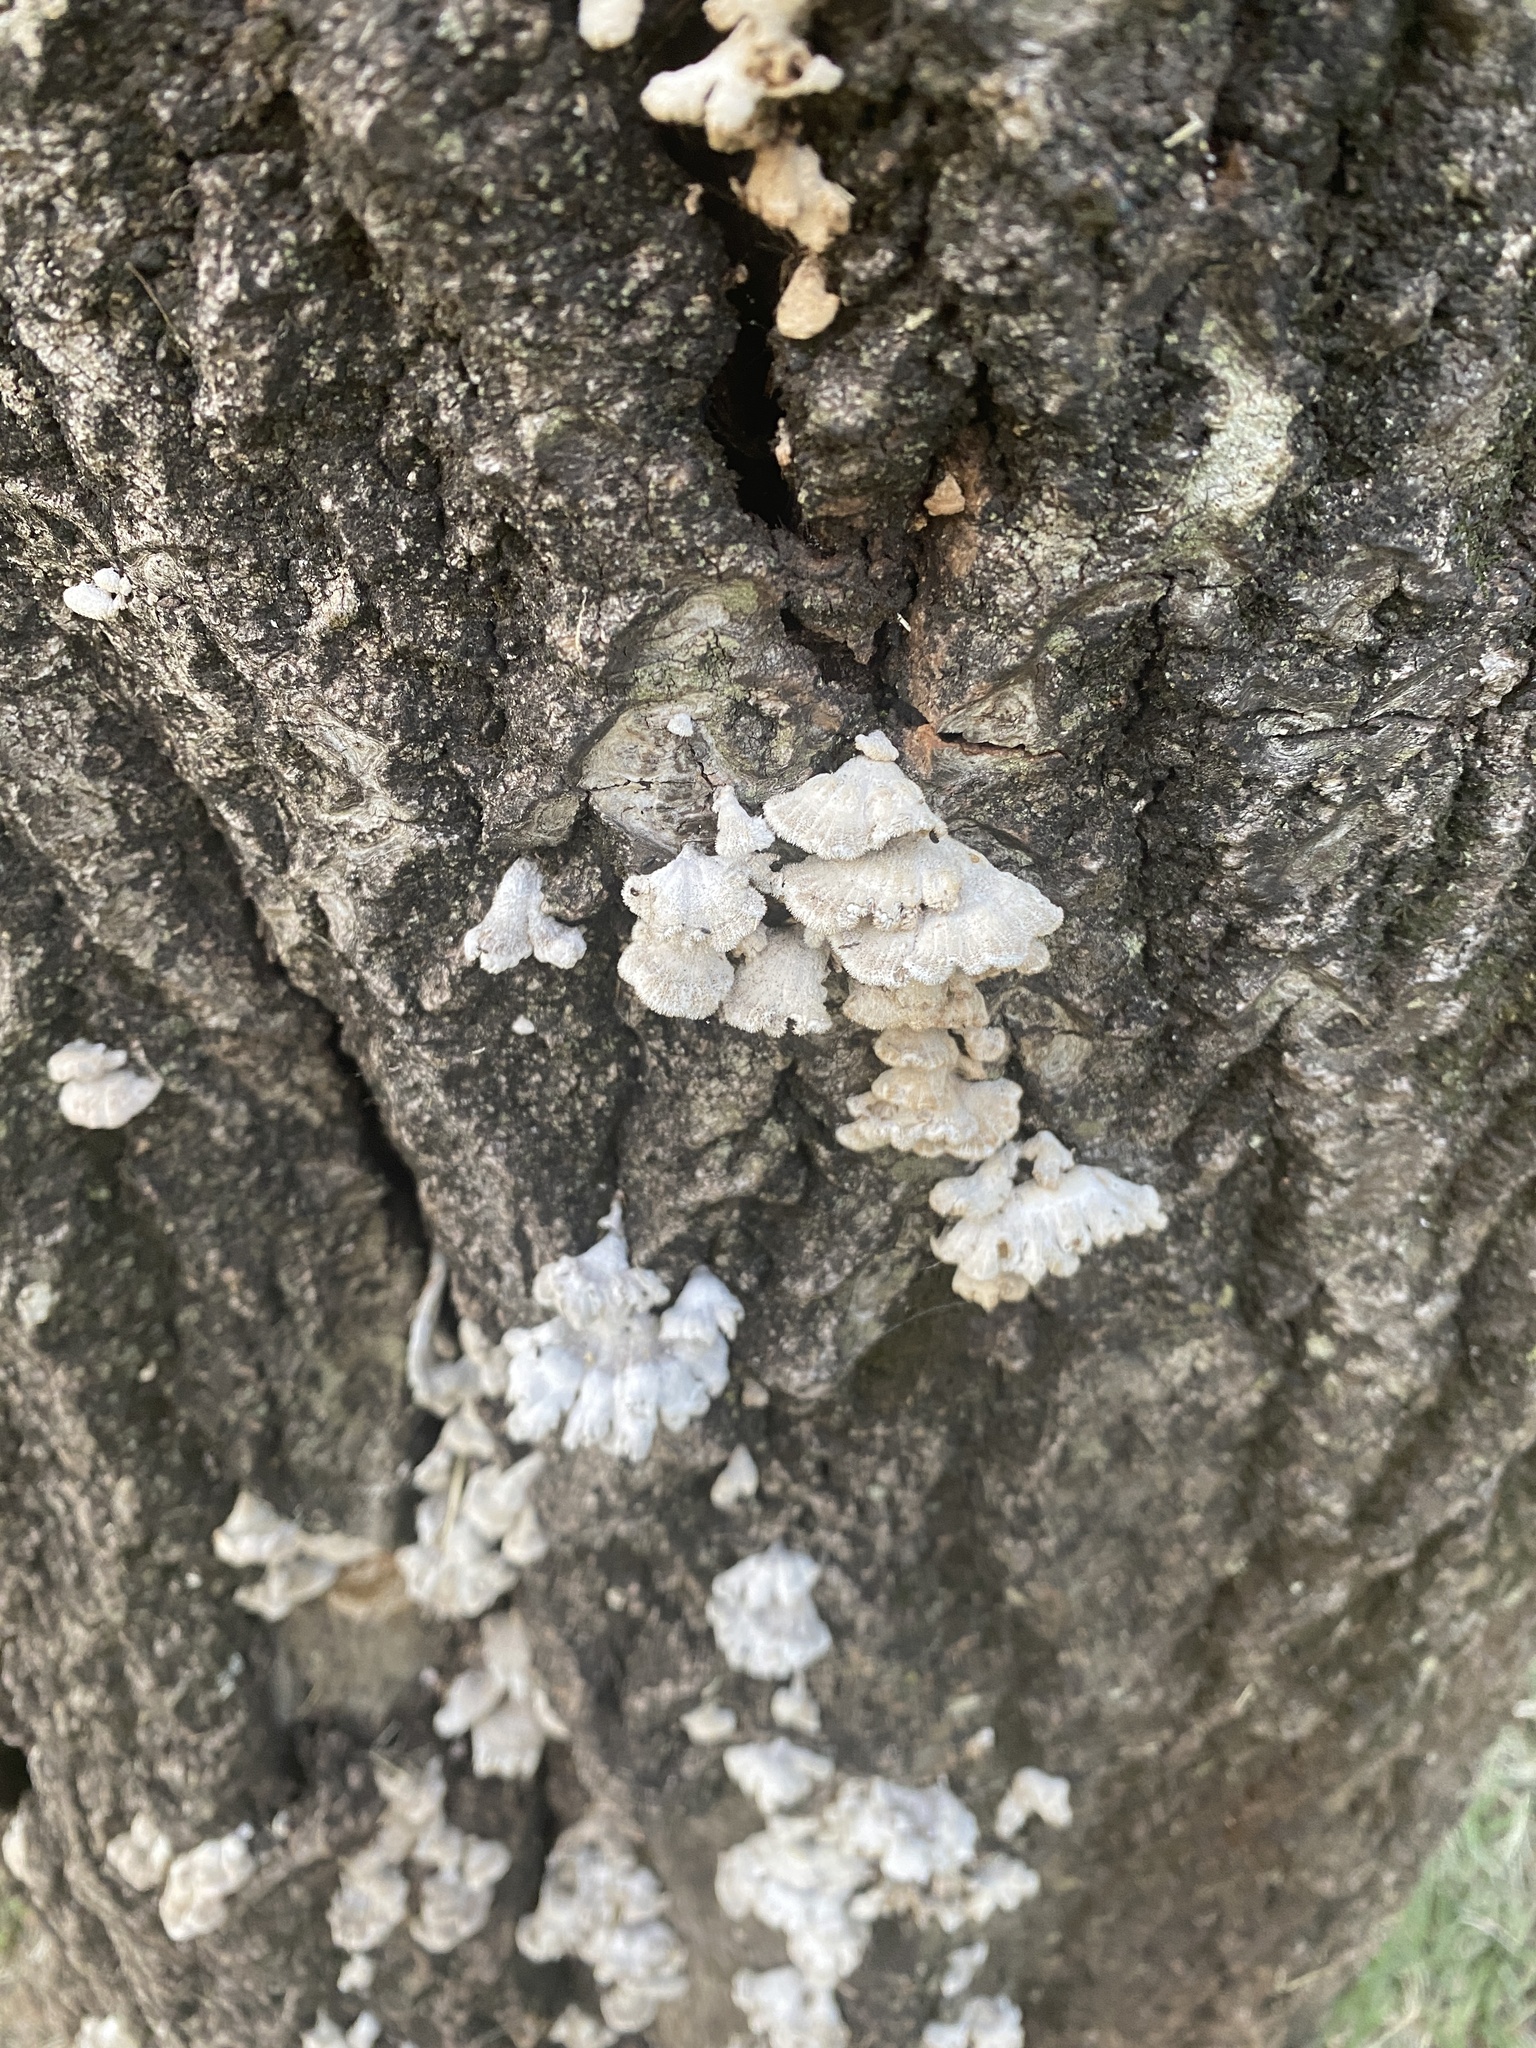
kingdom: Fungi
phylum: Basidiomycota
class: Agaricomycetes
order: Agaricales
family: Schizophyllaceae
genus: Schizophyllum
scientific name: Schizophyllum commune
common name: Common porecrust
